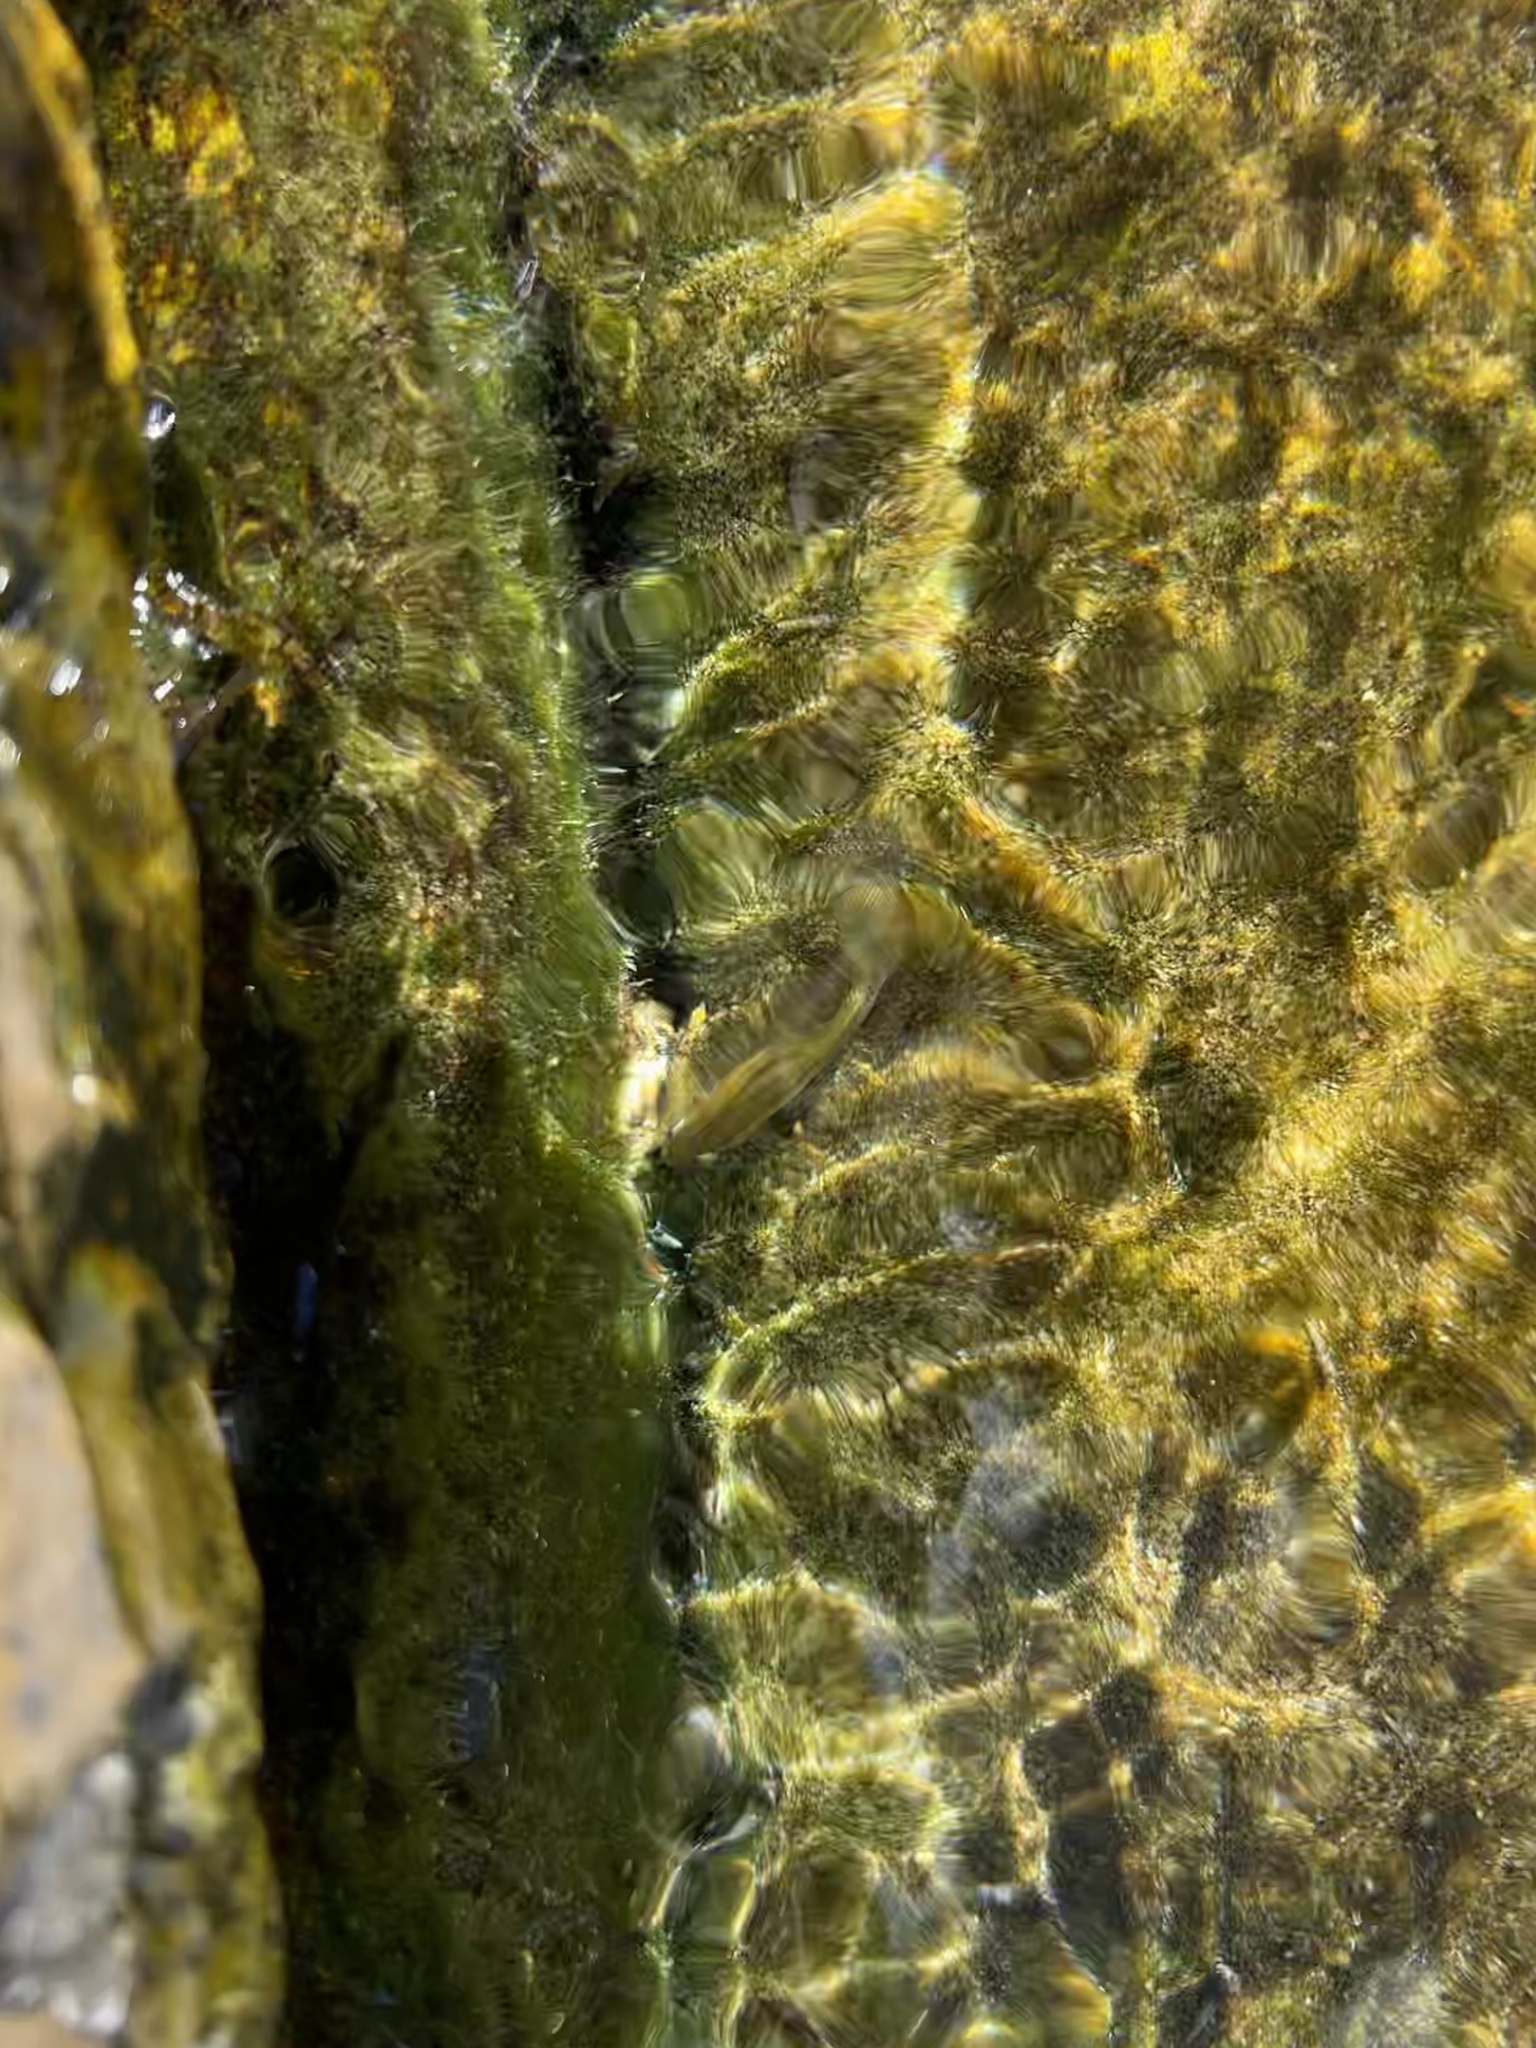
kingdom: Animalia
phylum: Chordata
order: Cyprinodontiformes
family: Poeciliidae
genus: Gambusia
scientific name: Gambusia nobilis
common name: Pecos gambusia
